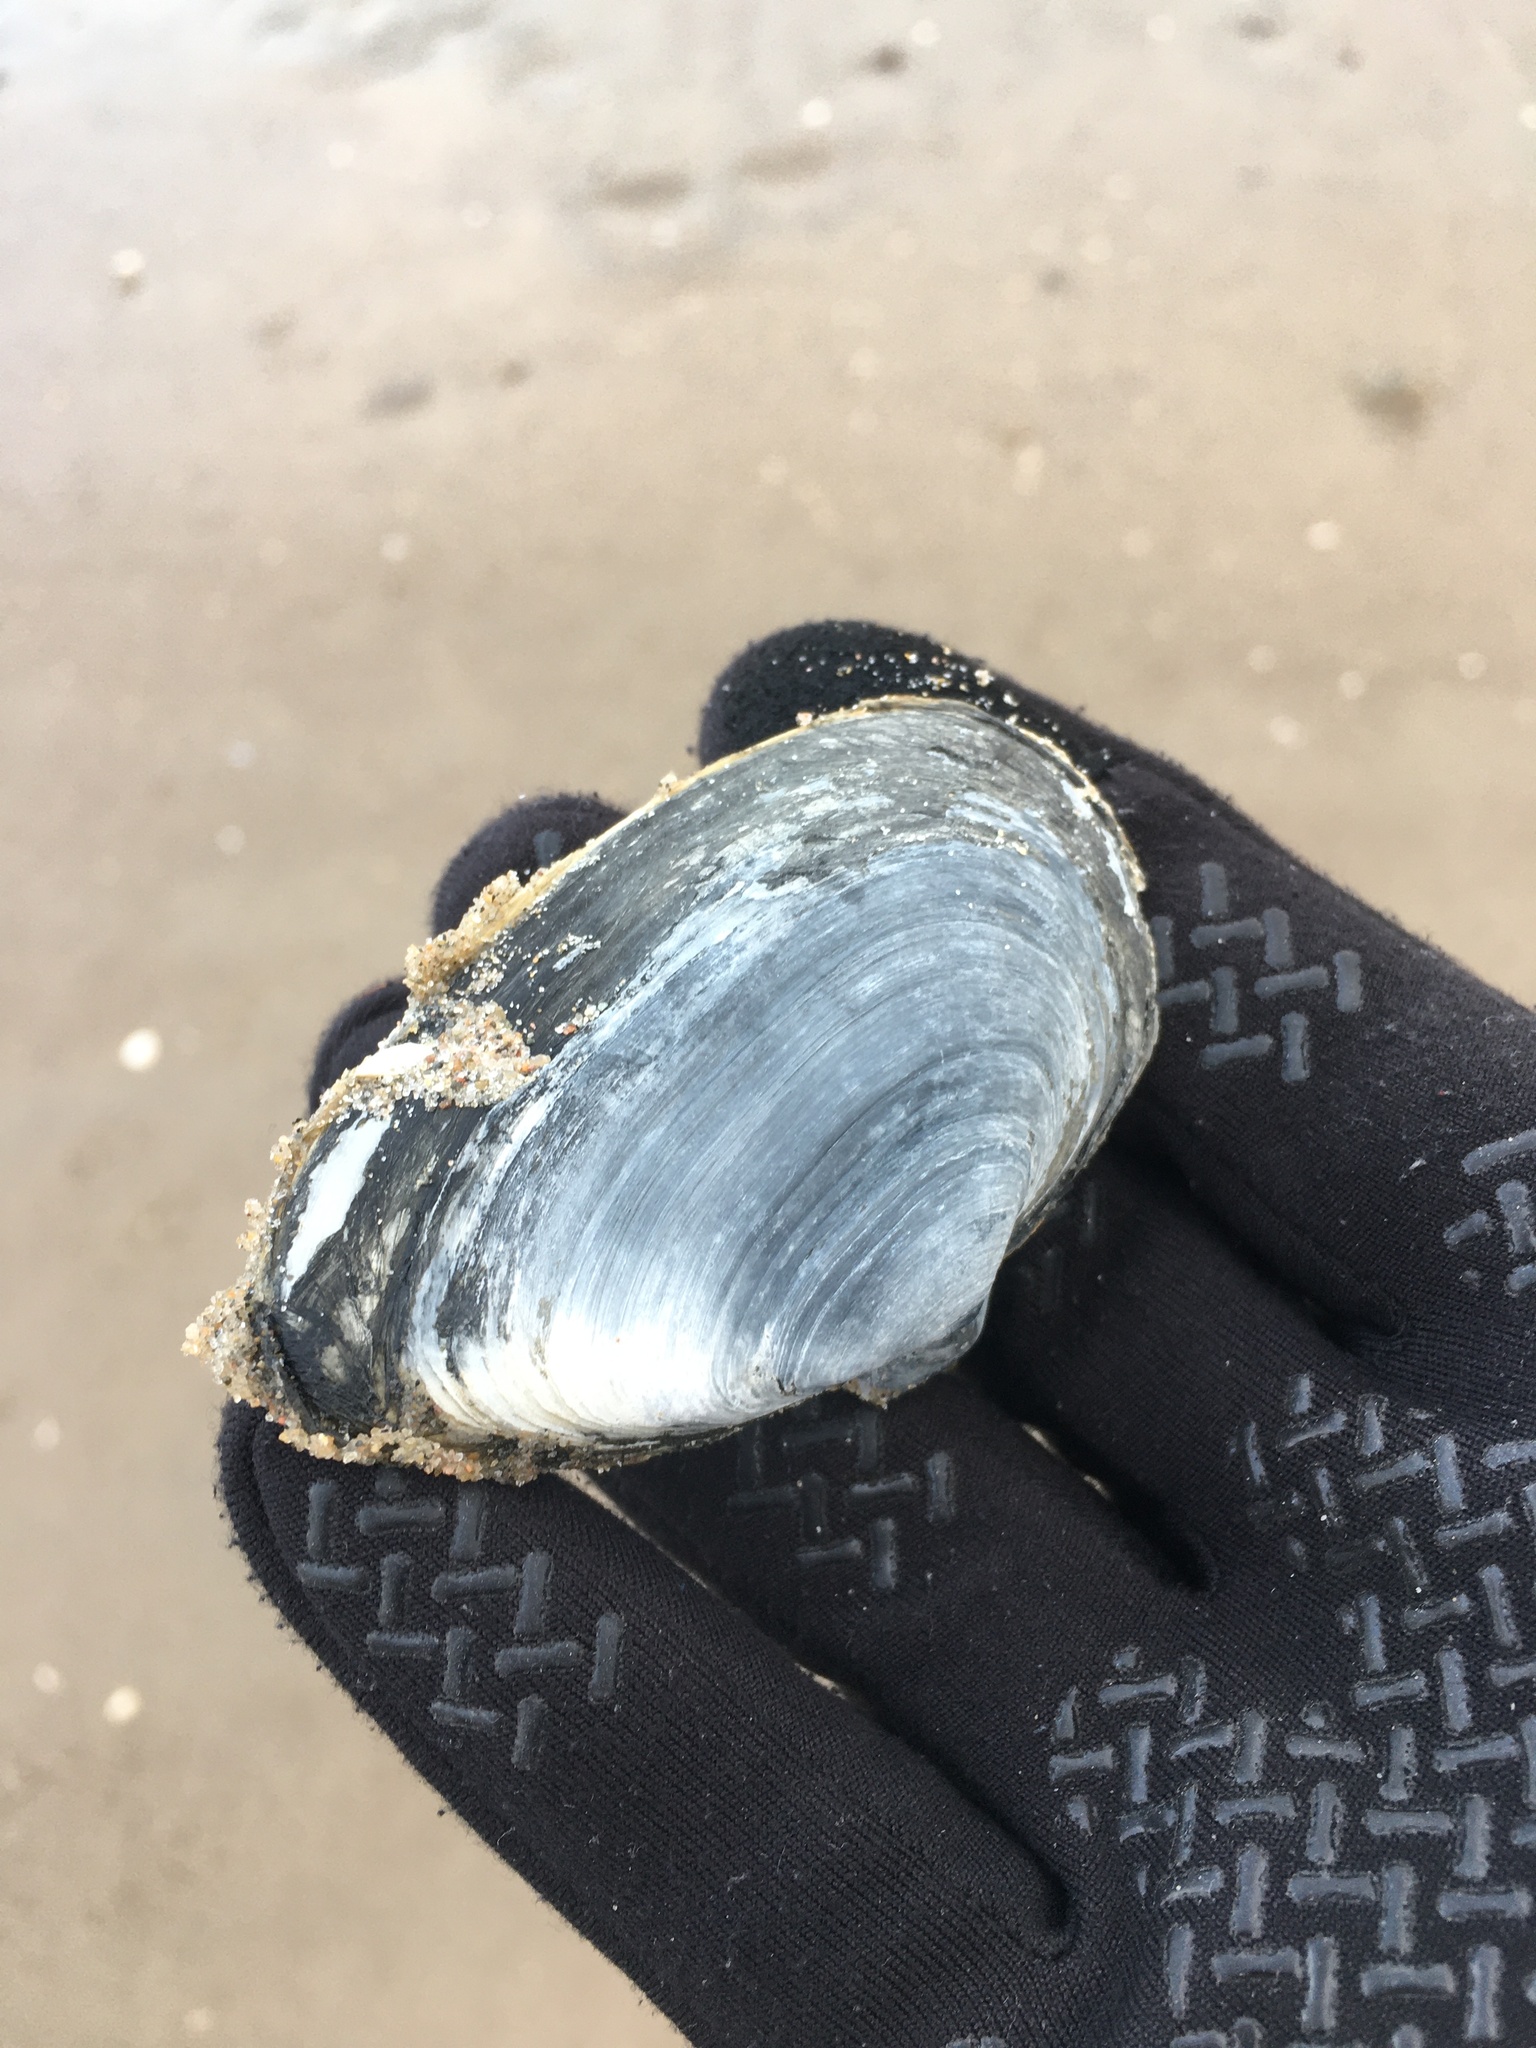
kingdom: Animalia
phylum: Mollusca
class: Bivalvia
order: Myida
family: Myidae
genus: Mya
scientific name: Mya arenaria
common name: Soft-shelled clam
